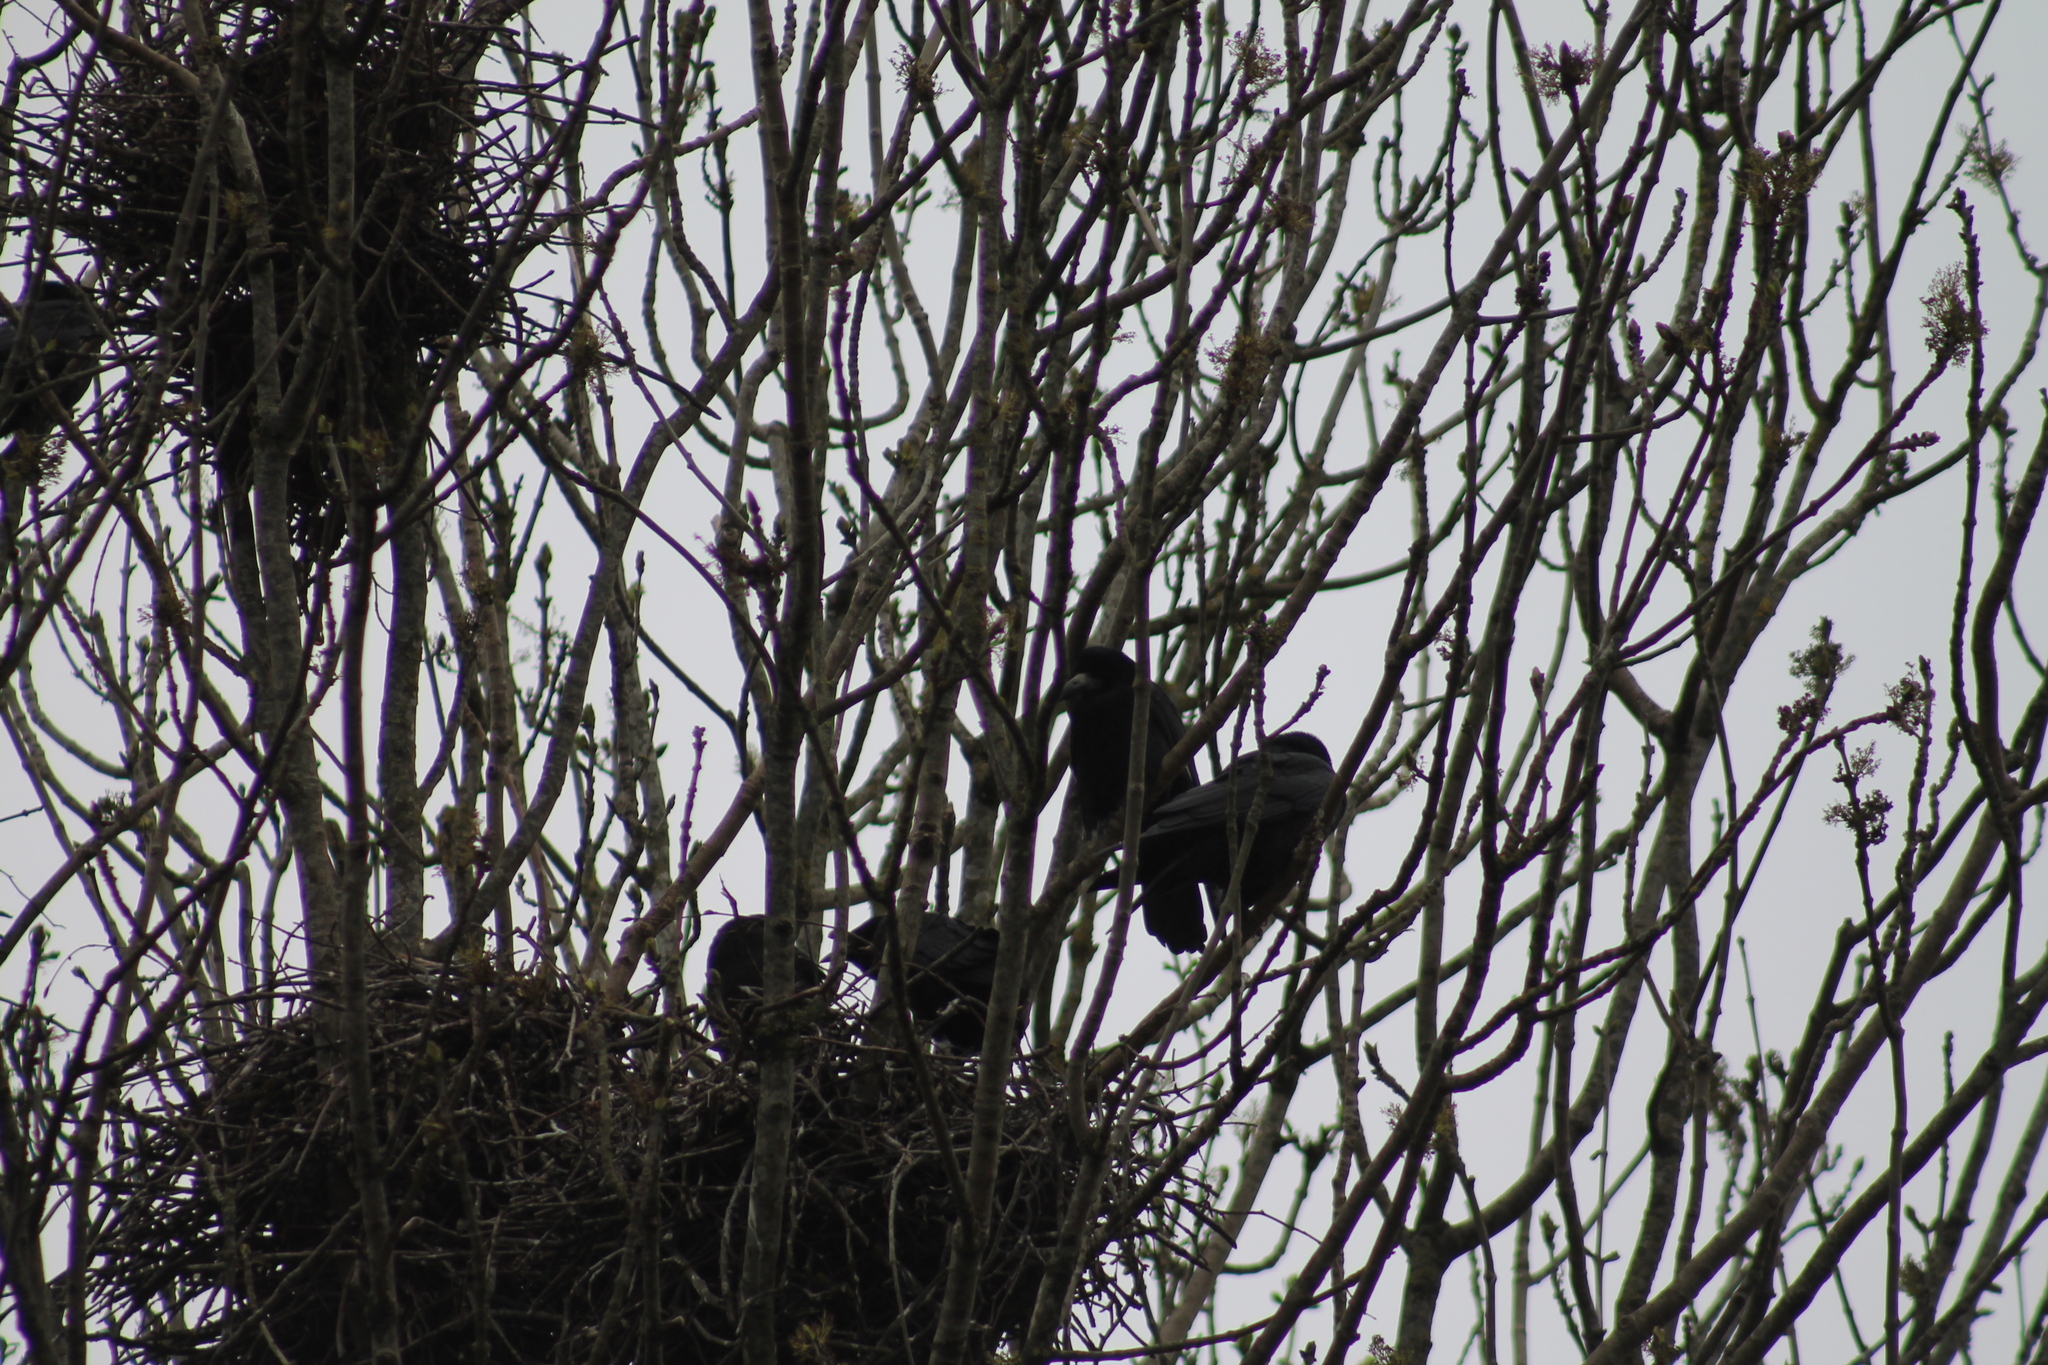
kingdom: Animalia
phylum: Chordata
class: Aves
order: Passeriformes
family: Corvidae
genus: Corvus
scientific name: Corvus frugilegus
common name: Rook
